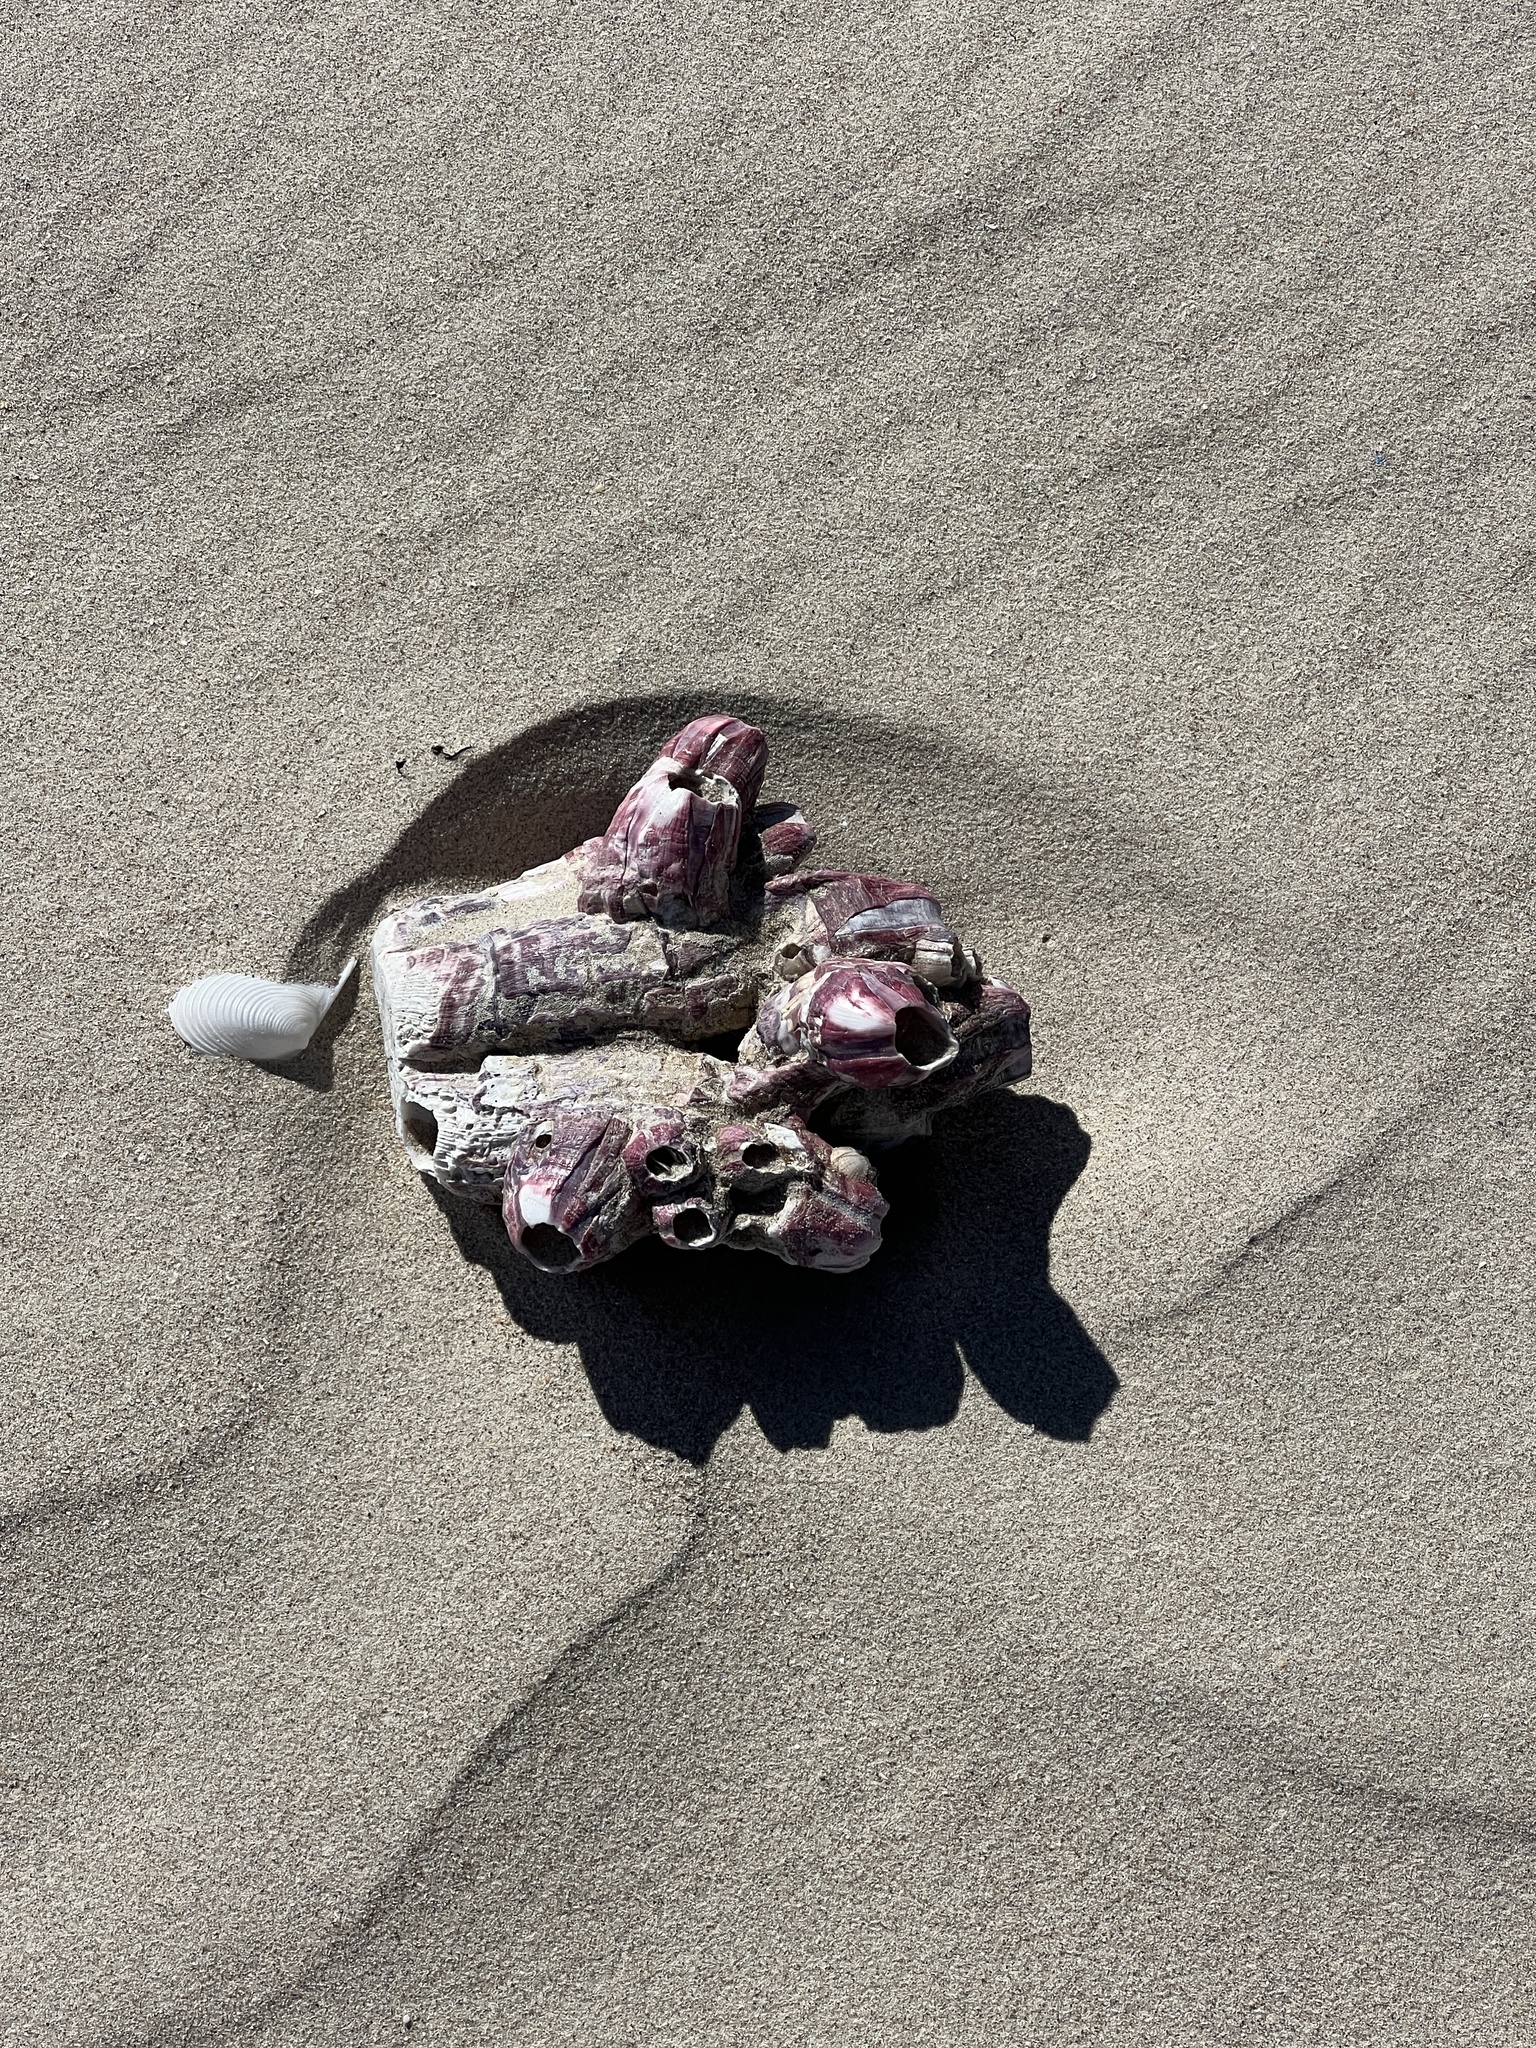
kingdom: Animalia
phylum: Arthropoda
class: Maxillopoda
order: Sessilia
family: Balanidae
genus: Megabalanus
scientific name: Megabalanus tintinnabulum
